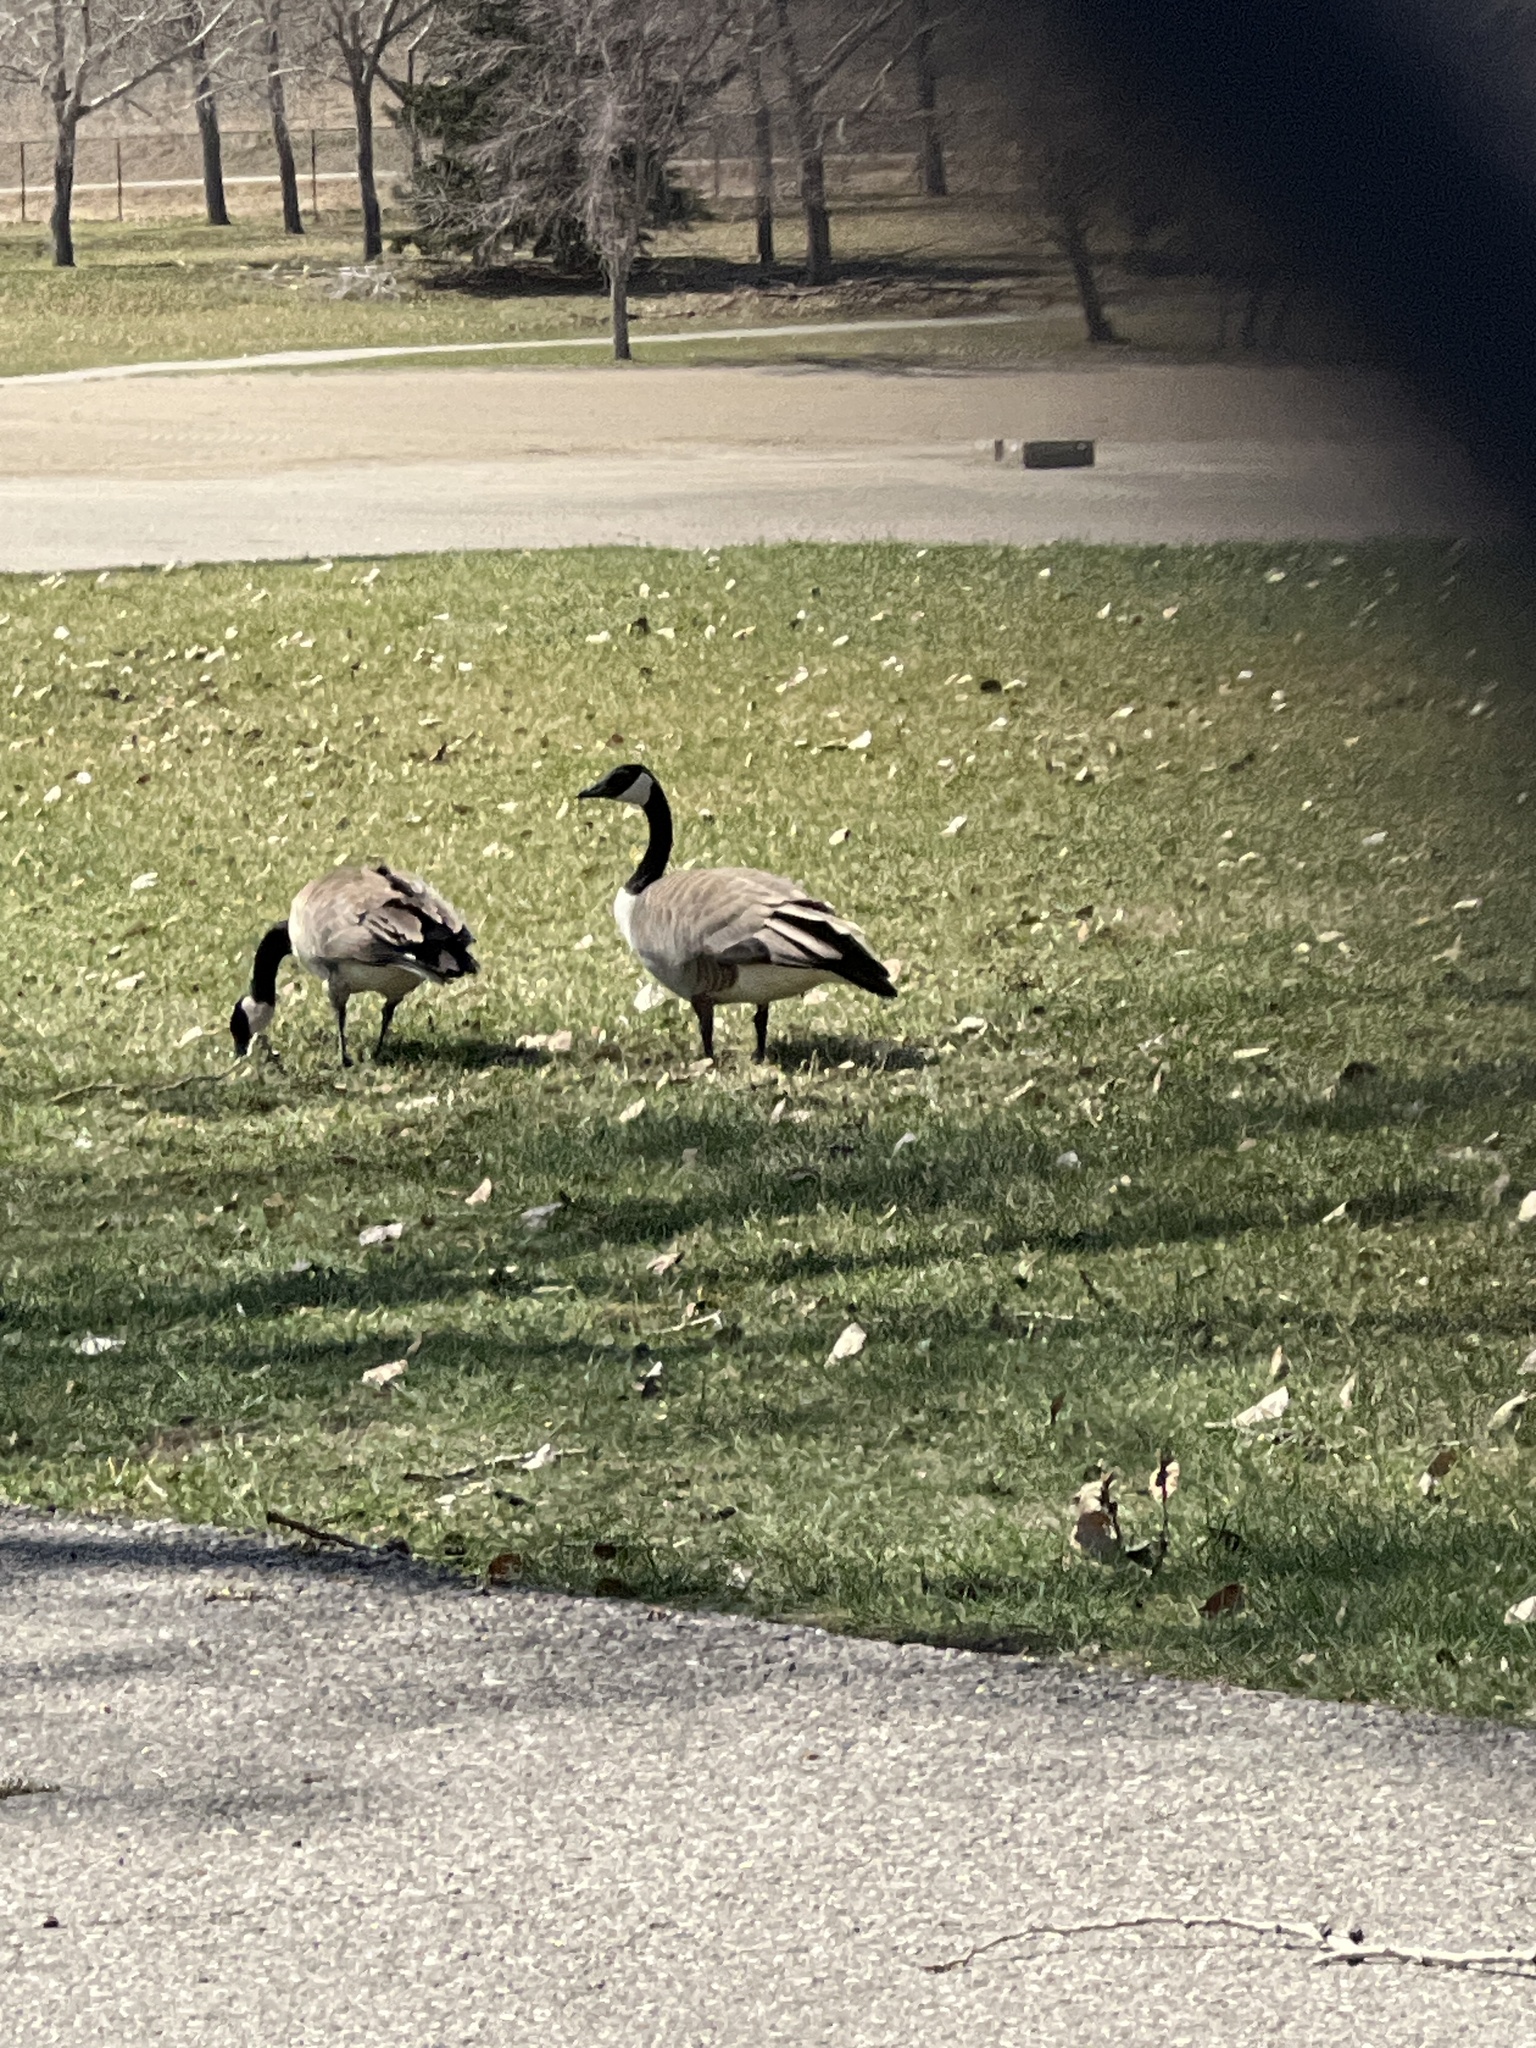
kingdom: Animalia
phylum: Chordata
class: Aves
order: Anseriformes
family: Anatidae
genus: Branta
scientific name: Branta canadensis
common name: Canada goose
